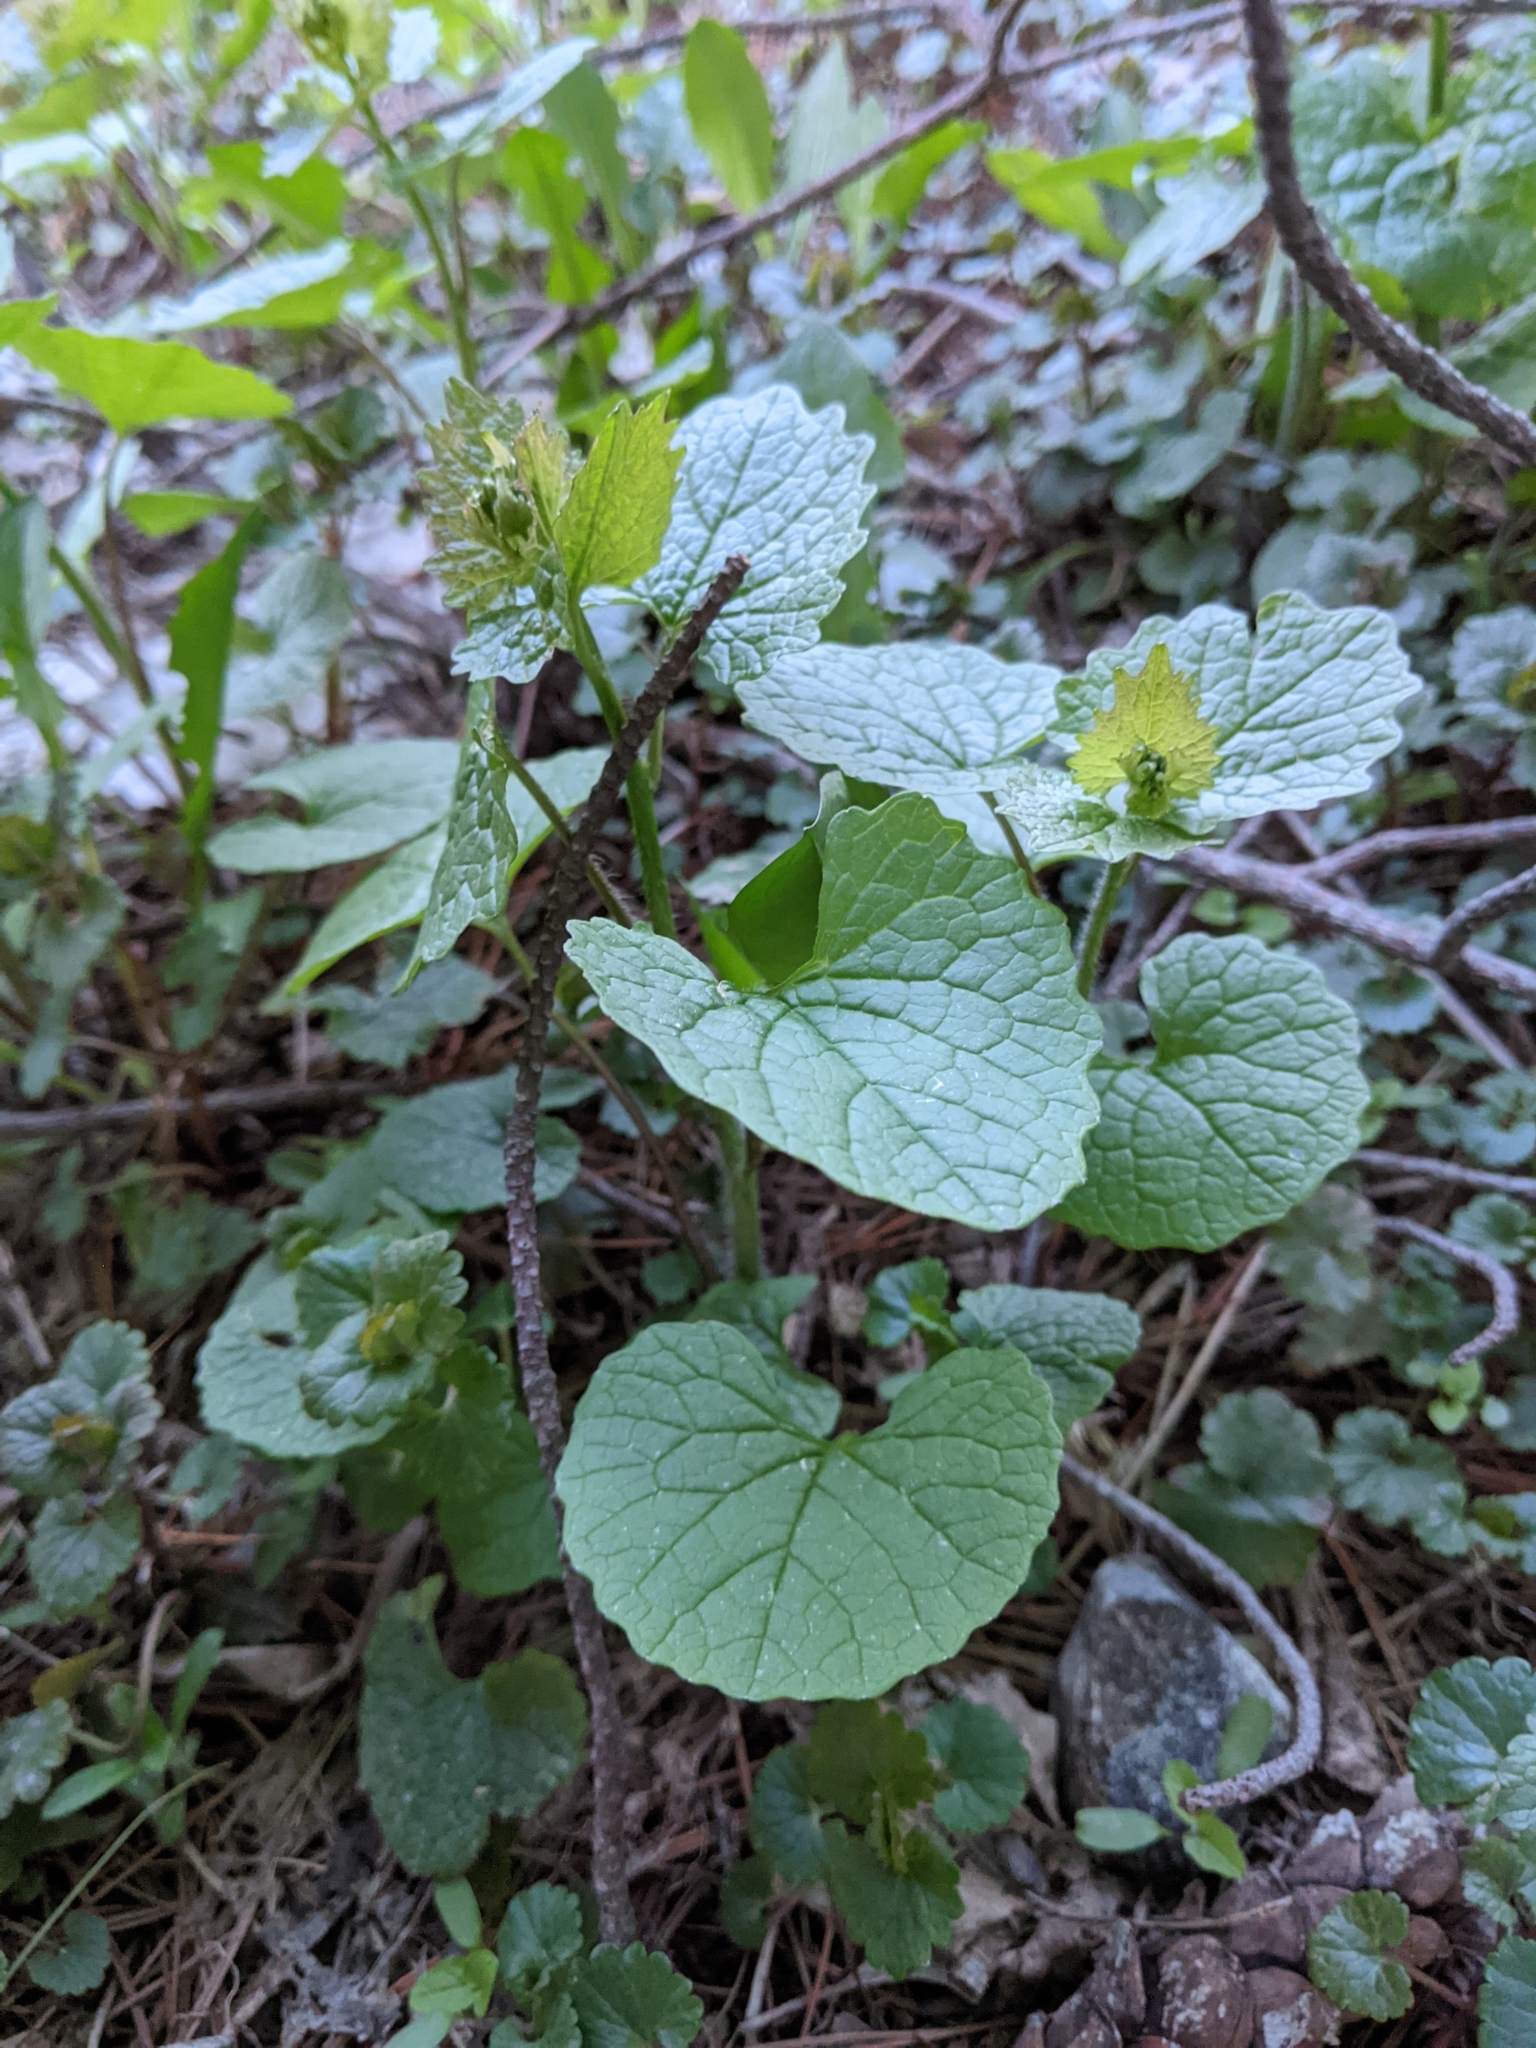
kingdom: Plantae
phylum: Tracheophyta
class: Magnoliopsida
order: Brassicales
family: Brassicaceae
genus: Alliaria
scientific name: Alliaria petiolata
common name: Garlic mustard
